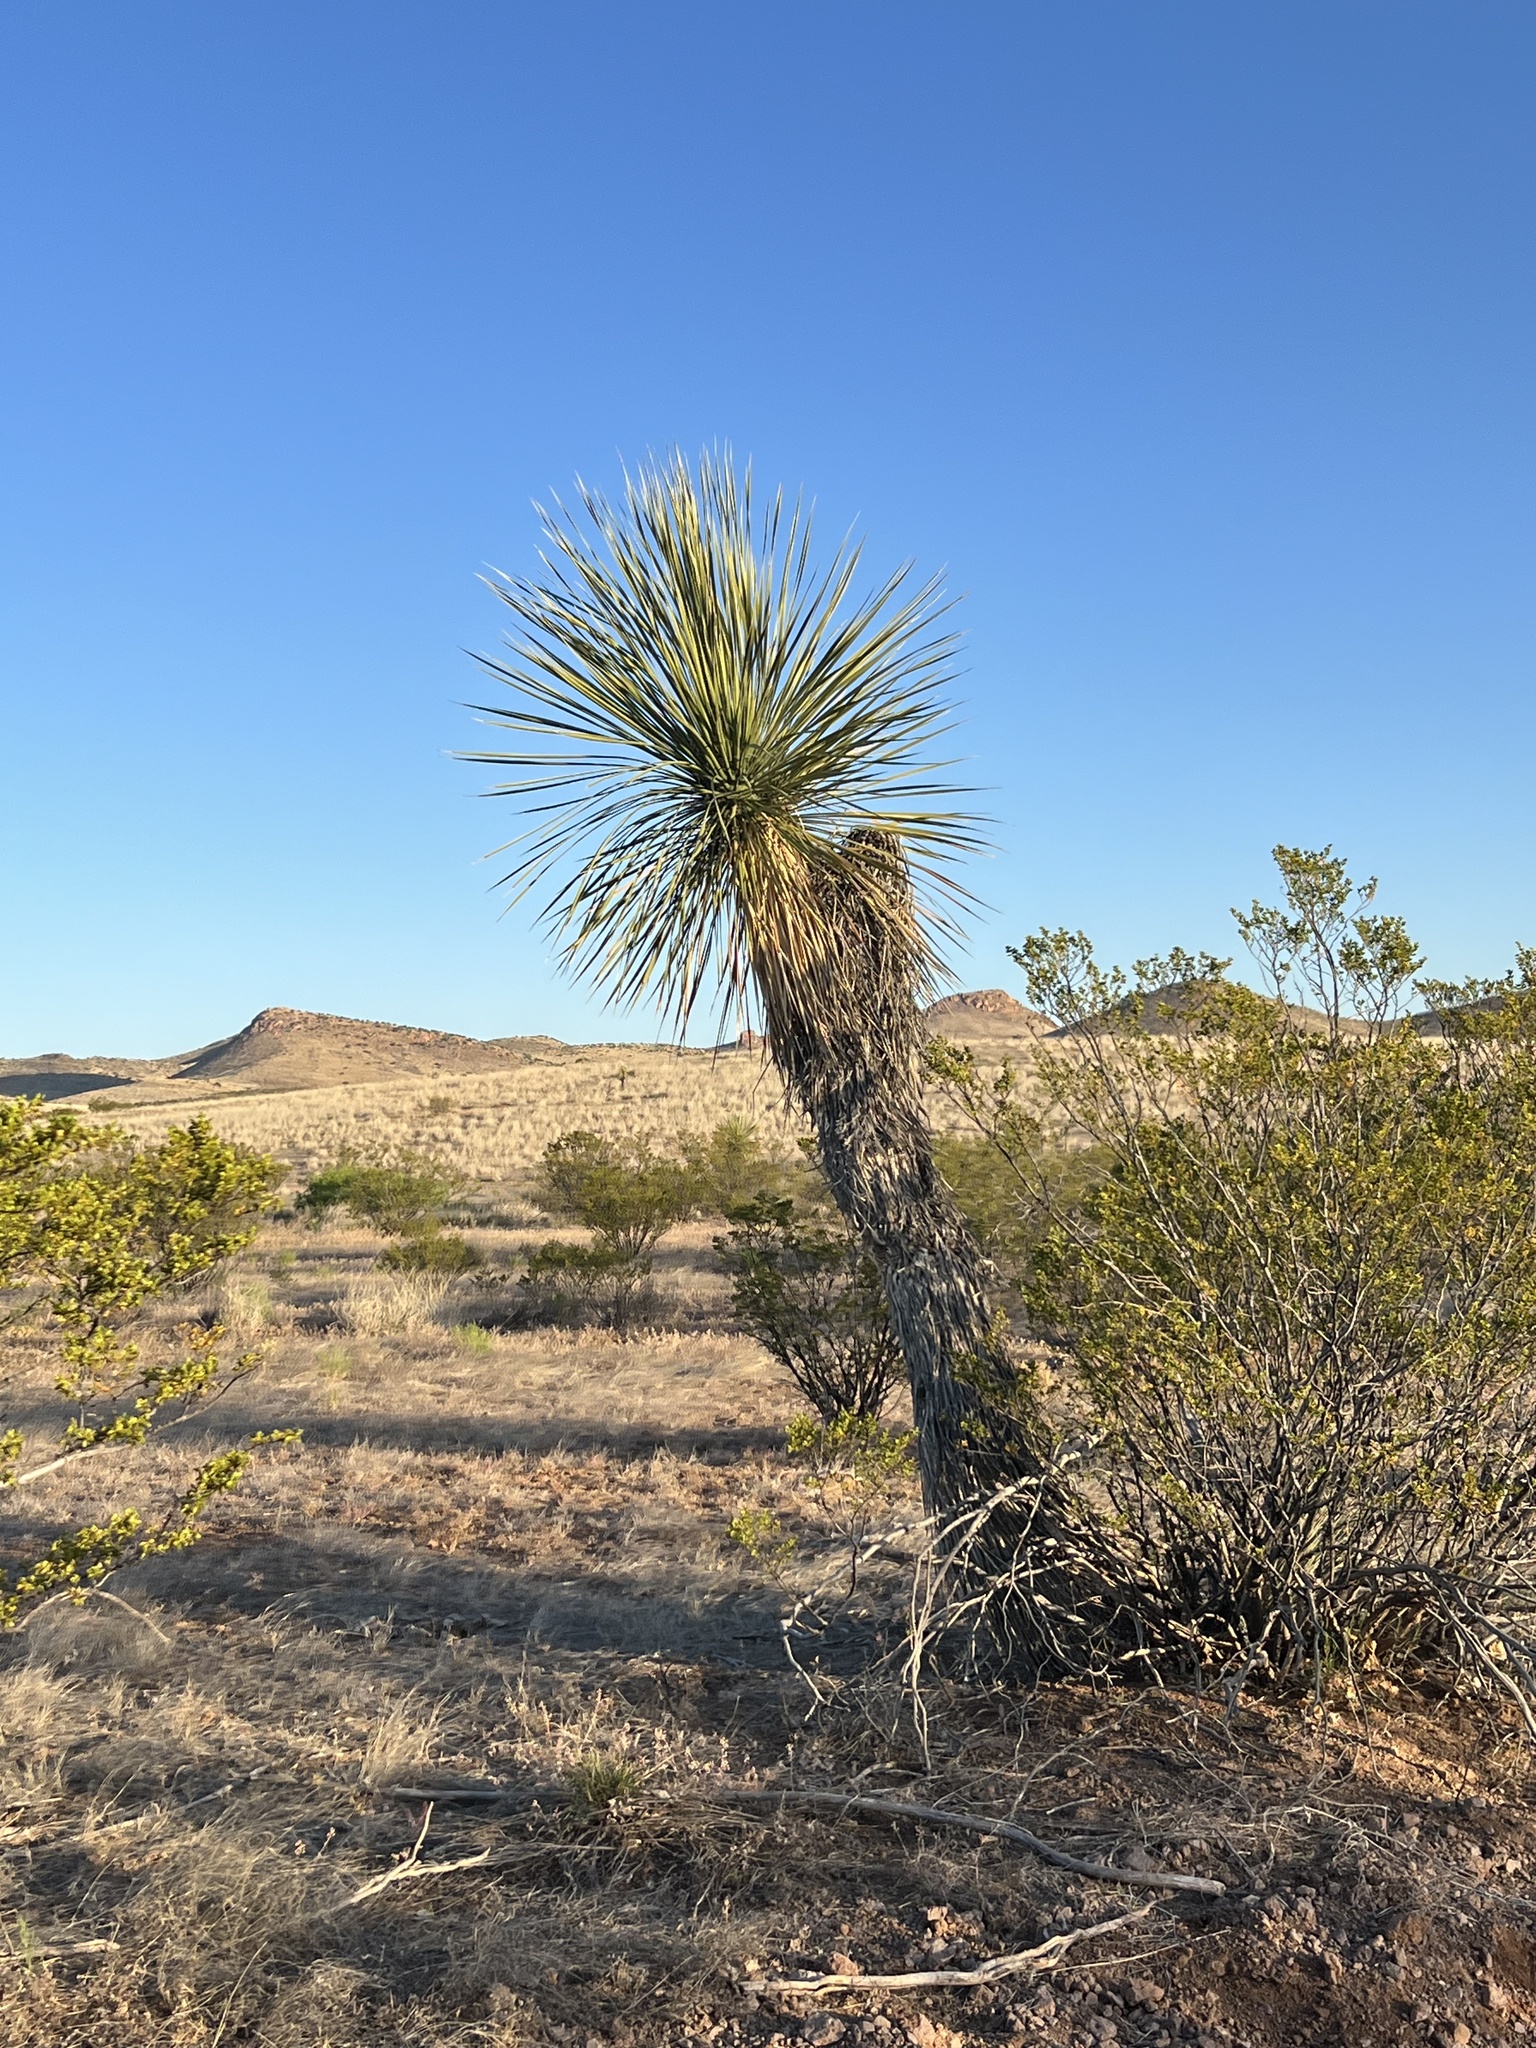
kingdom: Plantae
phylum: Tracheophyta
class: Liliopsida
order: Asparagales
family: Asparagaceae
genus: Yucca
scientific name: Yucca elata
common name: Palmella
